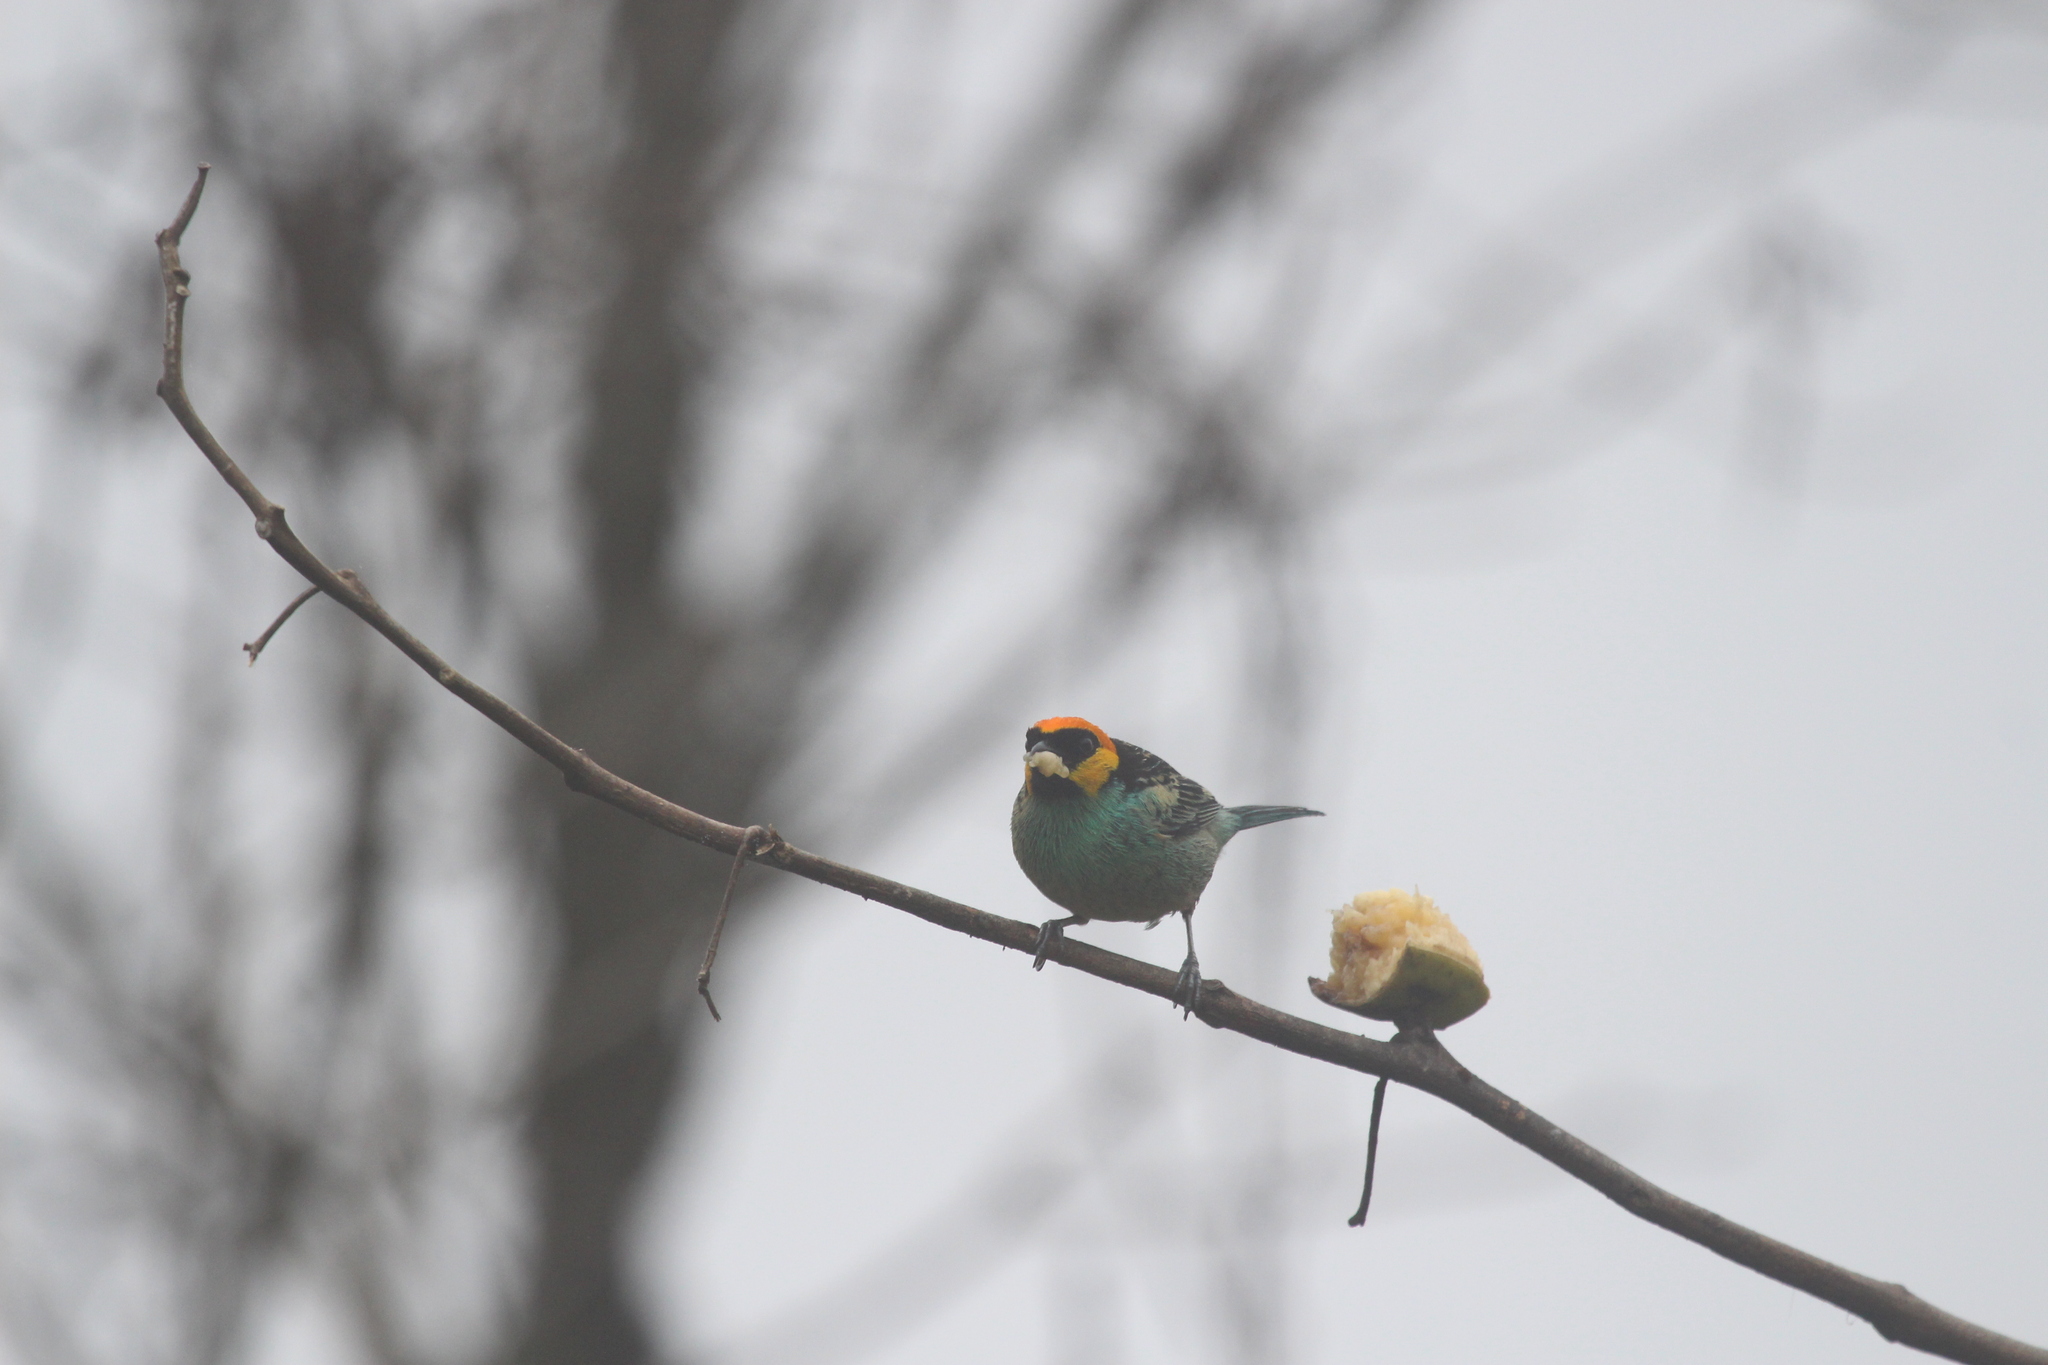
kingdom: Animalia
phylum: Chordata
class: Aves
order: Passeriformes
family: Thraupidae
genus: Tangara
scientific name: Tangara xanthocephala
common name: Saffron-crowned tanager
